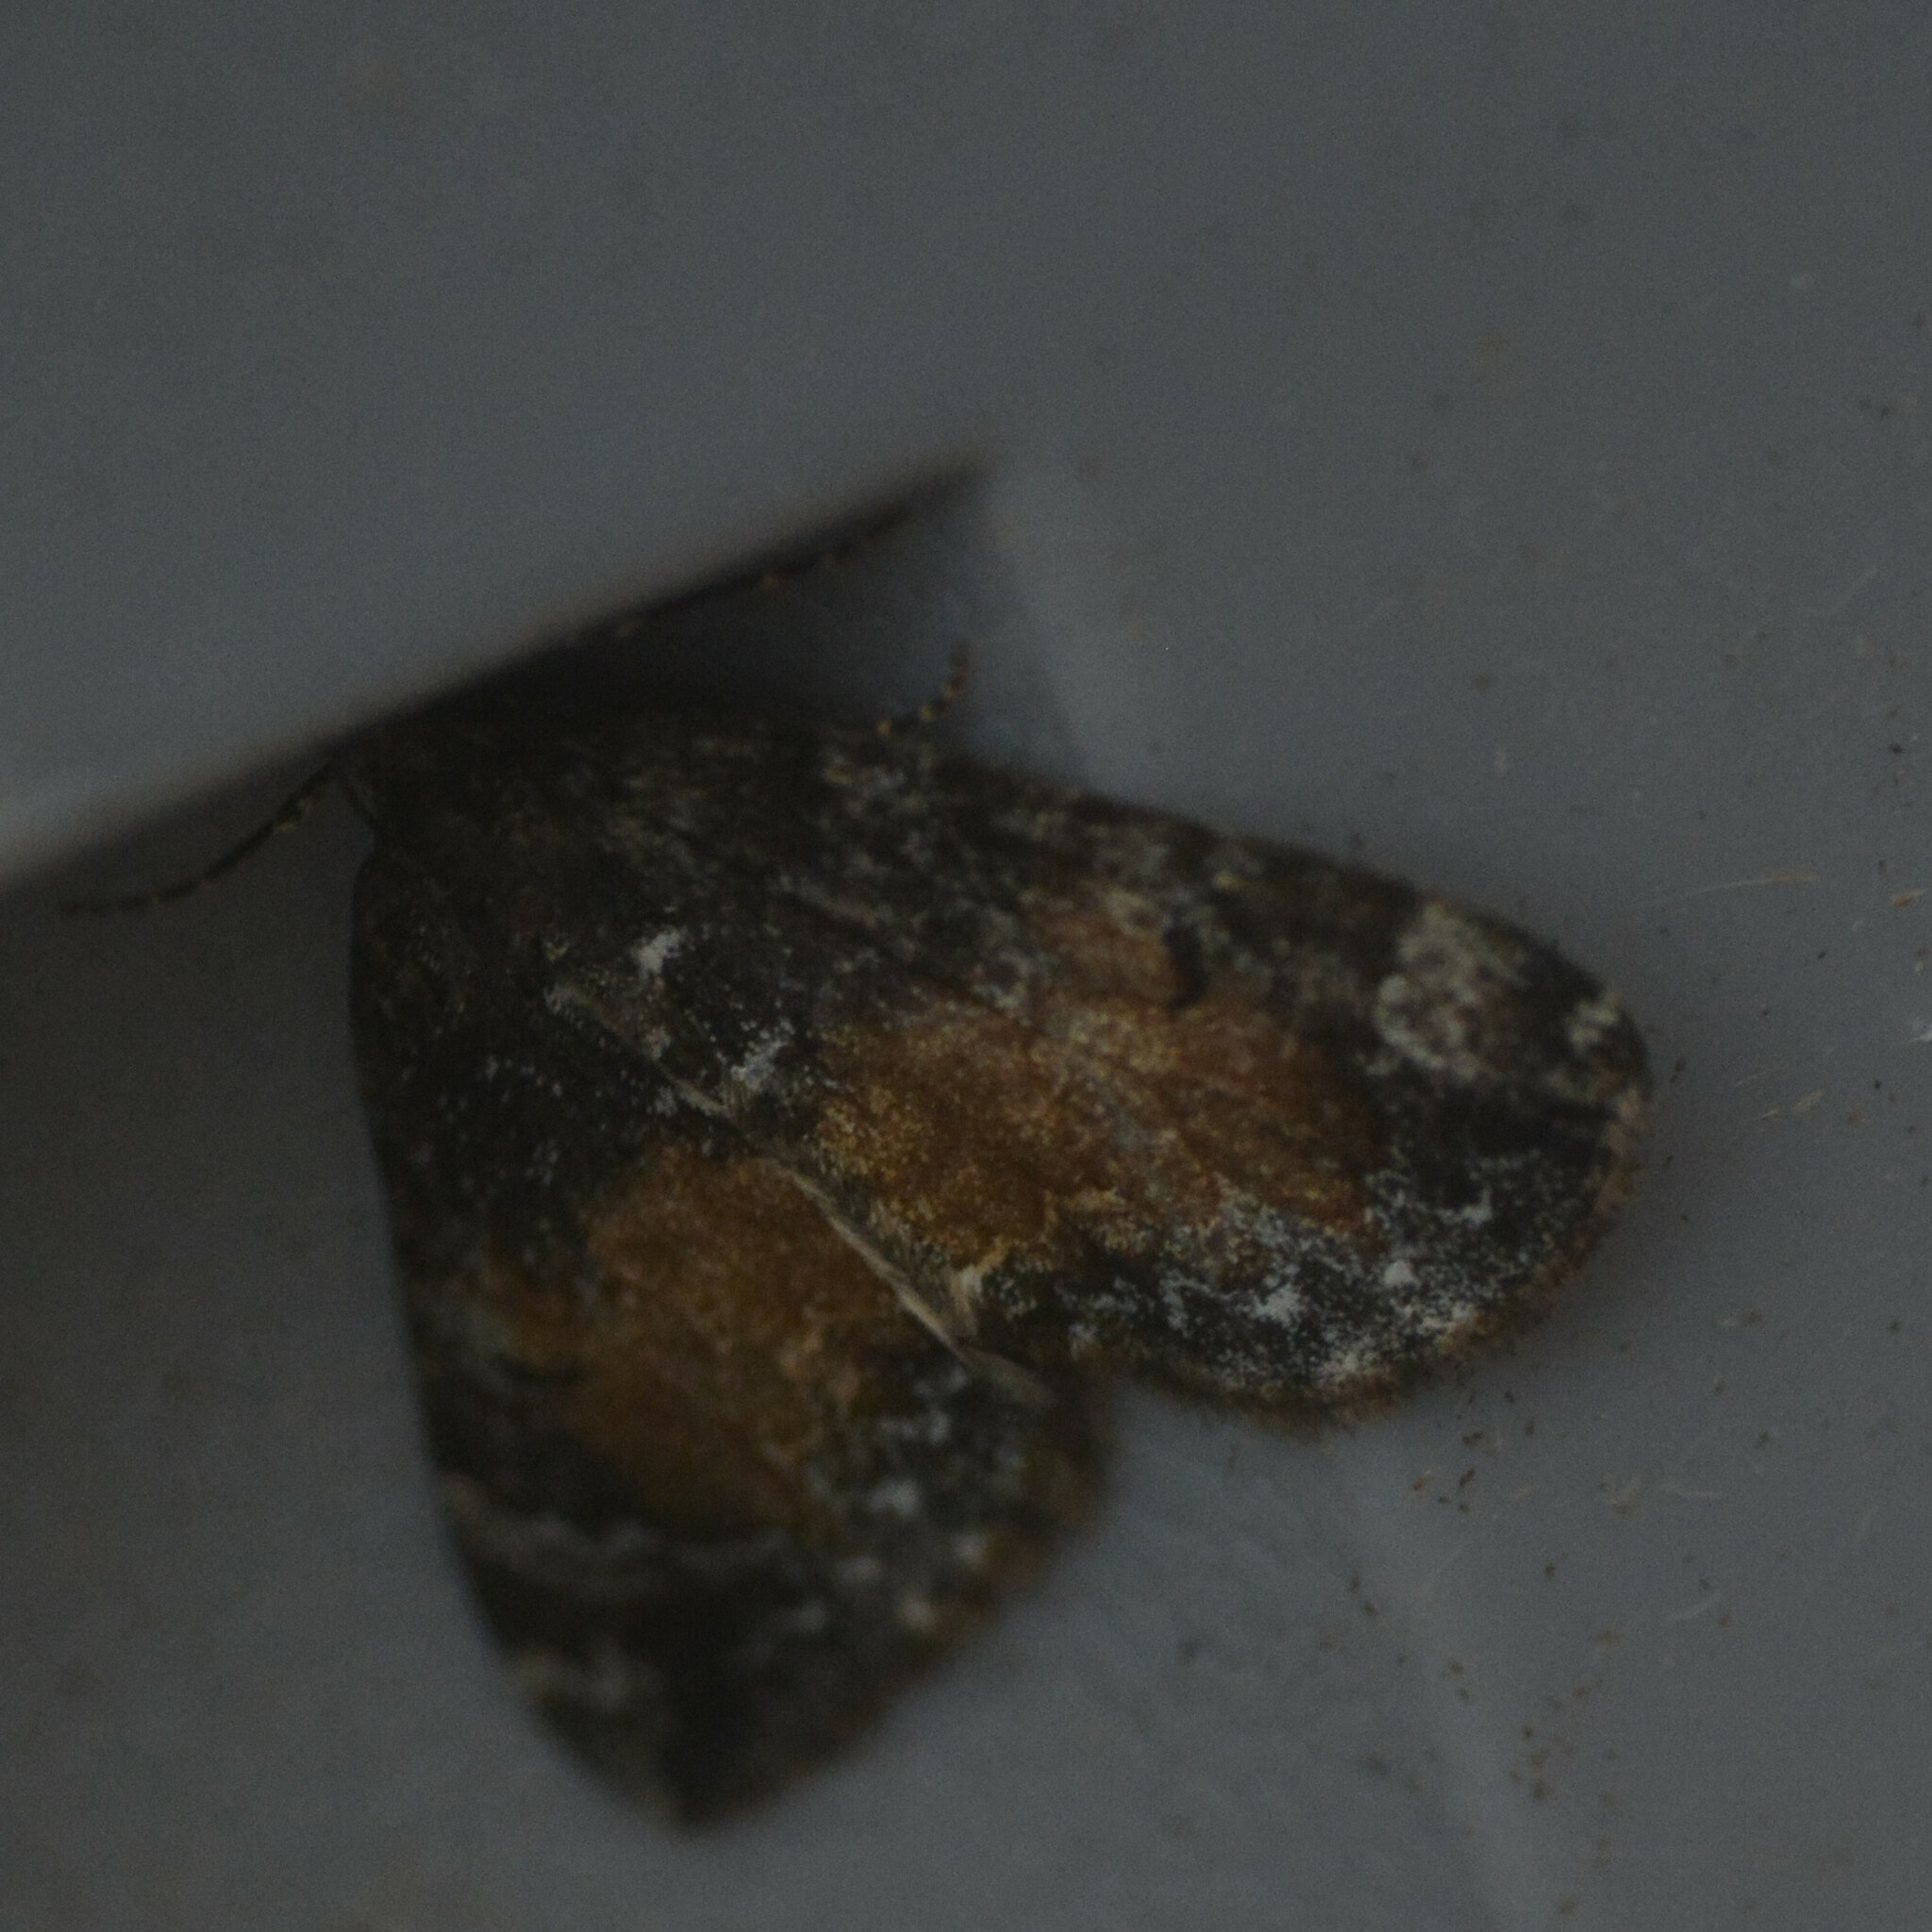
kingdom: Animalia
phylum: Arthropoda
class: Insecta
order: Lepidoptera
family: Geometridae
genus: Dysstroma
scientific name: Dysstroma truncata
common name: Common marbled carpet
